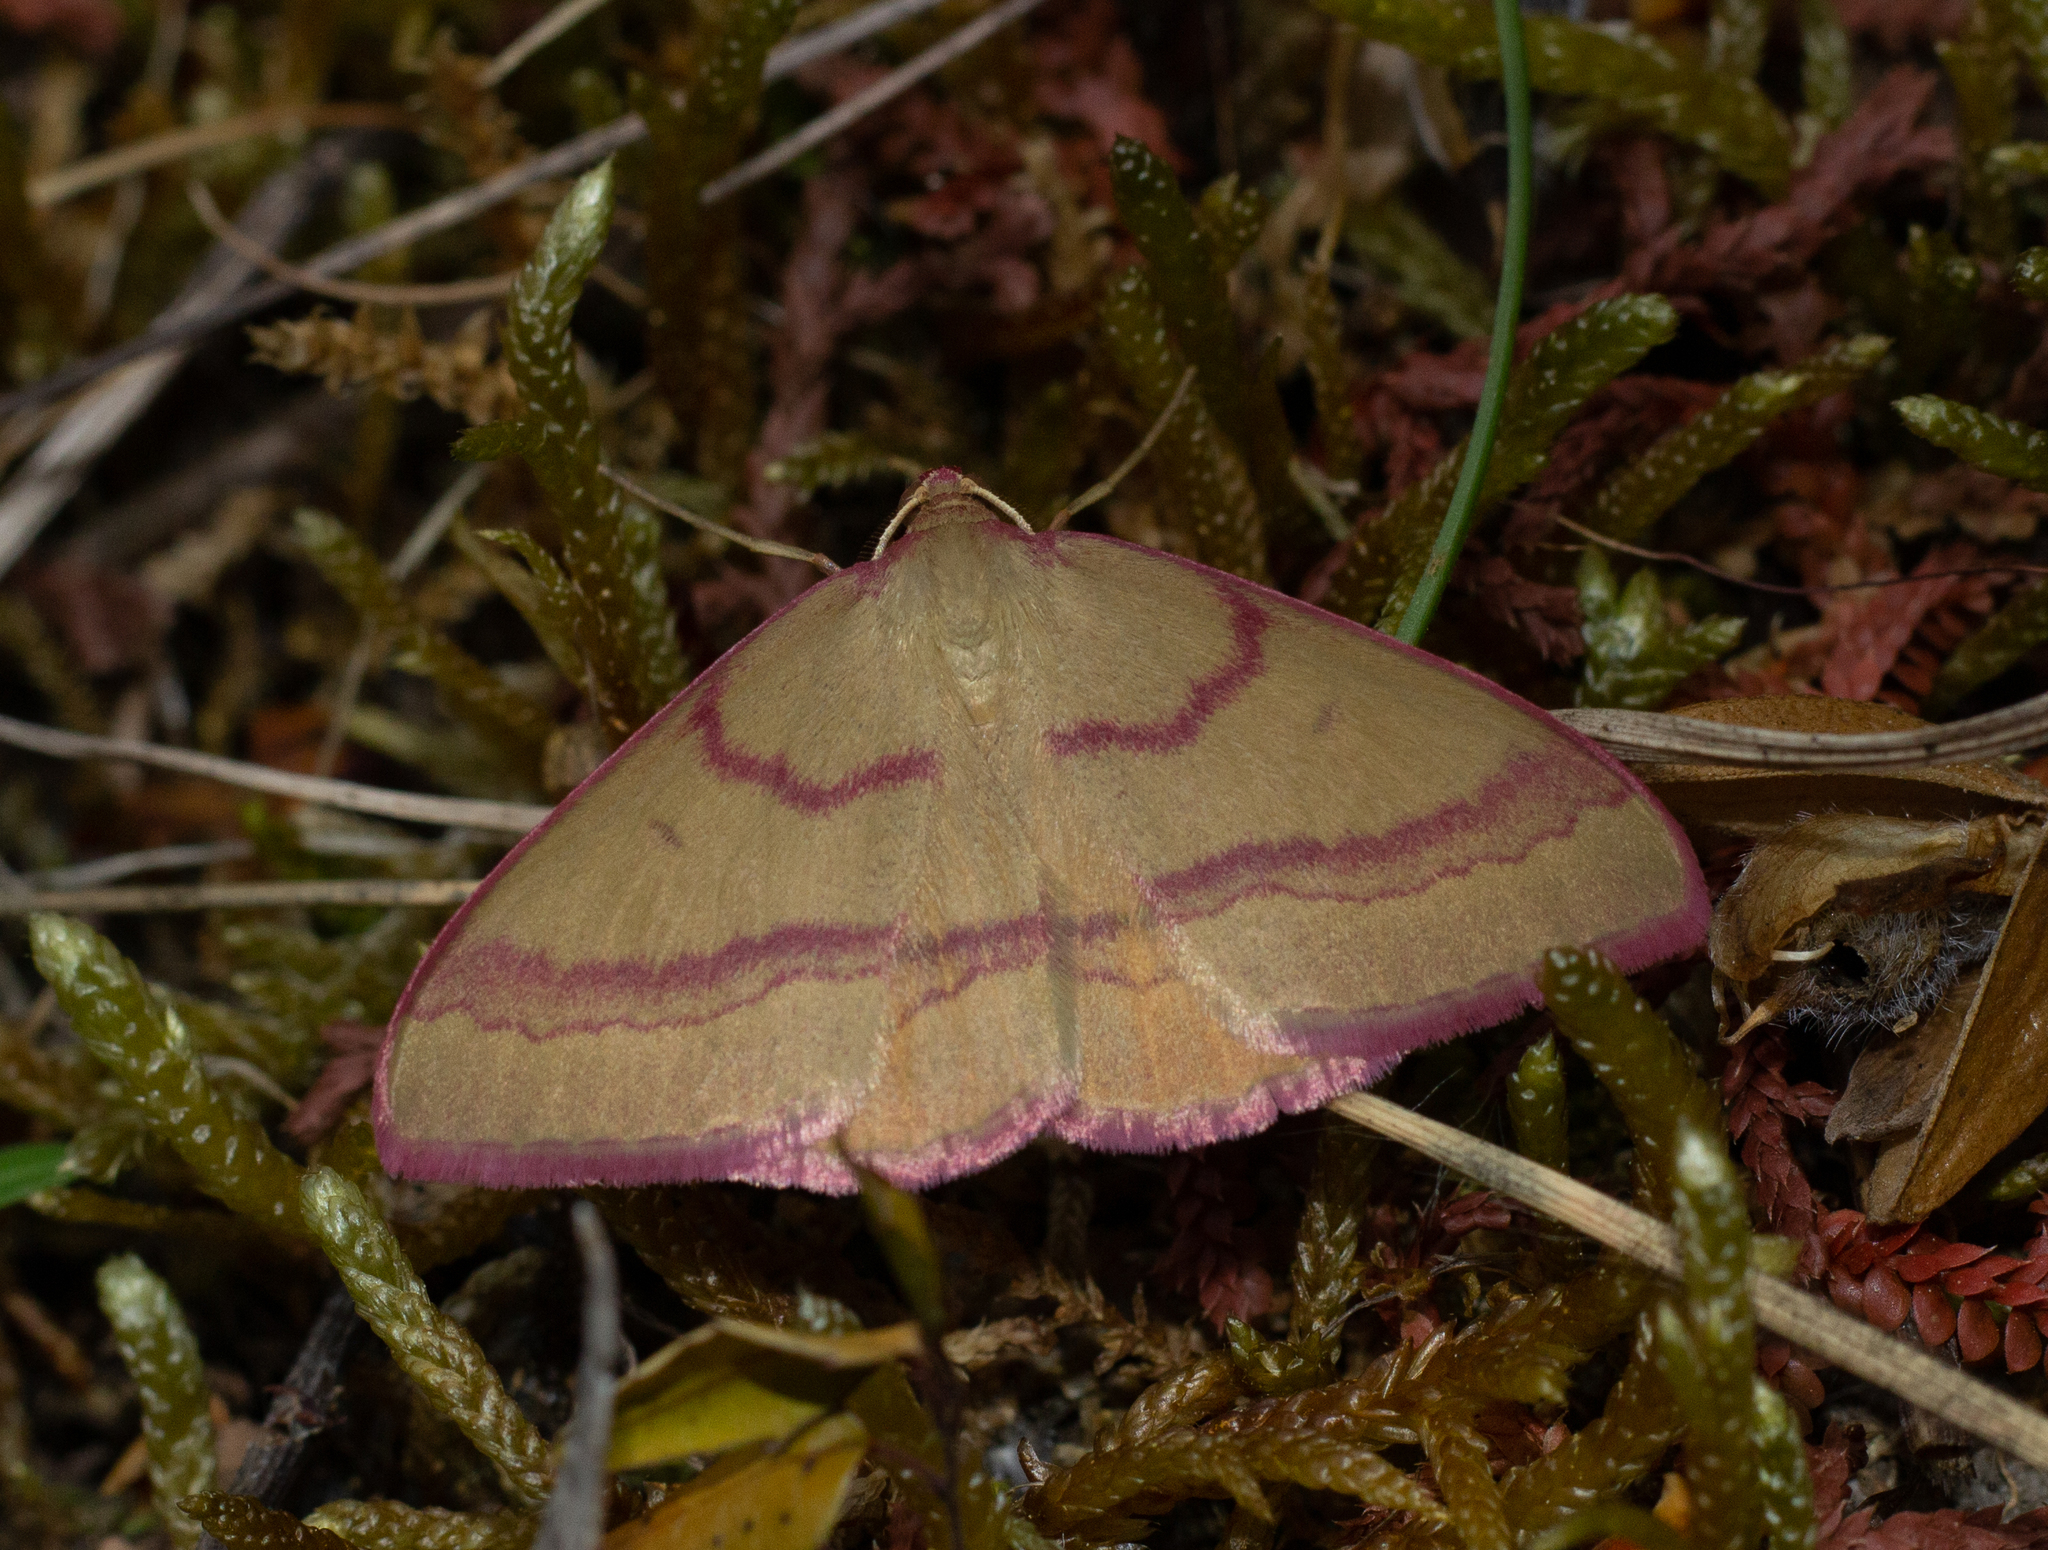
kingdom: Animalia
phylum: Arthropoda
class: Insecta
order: Lepidoptera
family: Geometridae
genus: Rhodostrophia
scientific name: Rhodostrophia calabra
